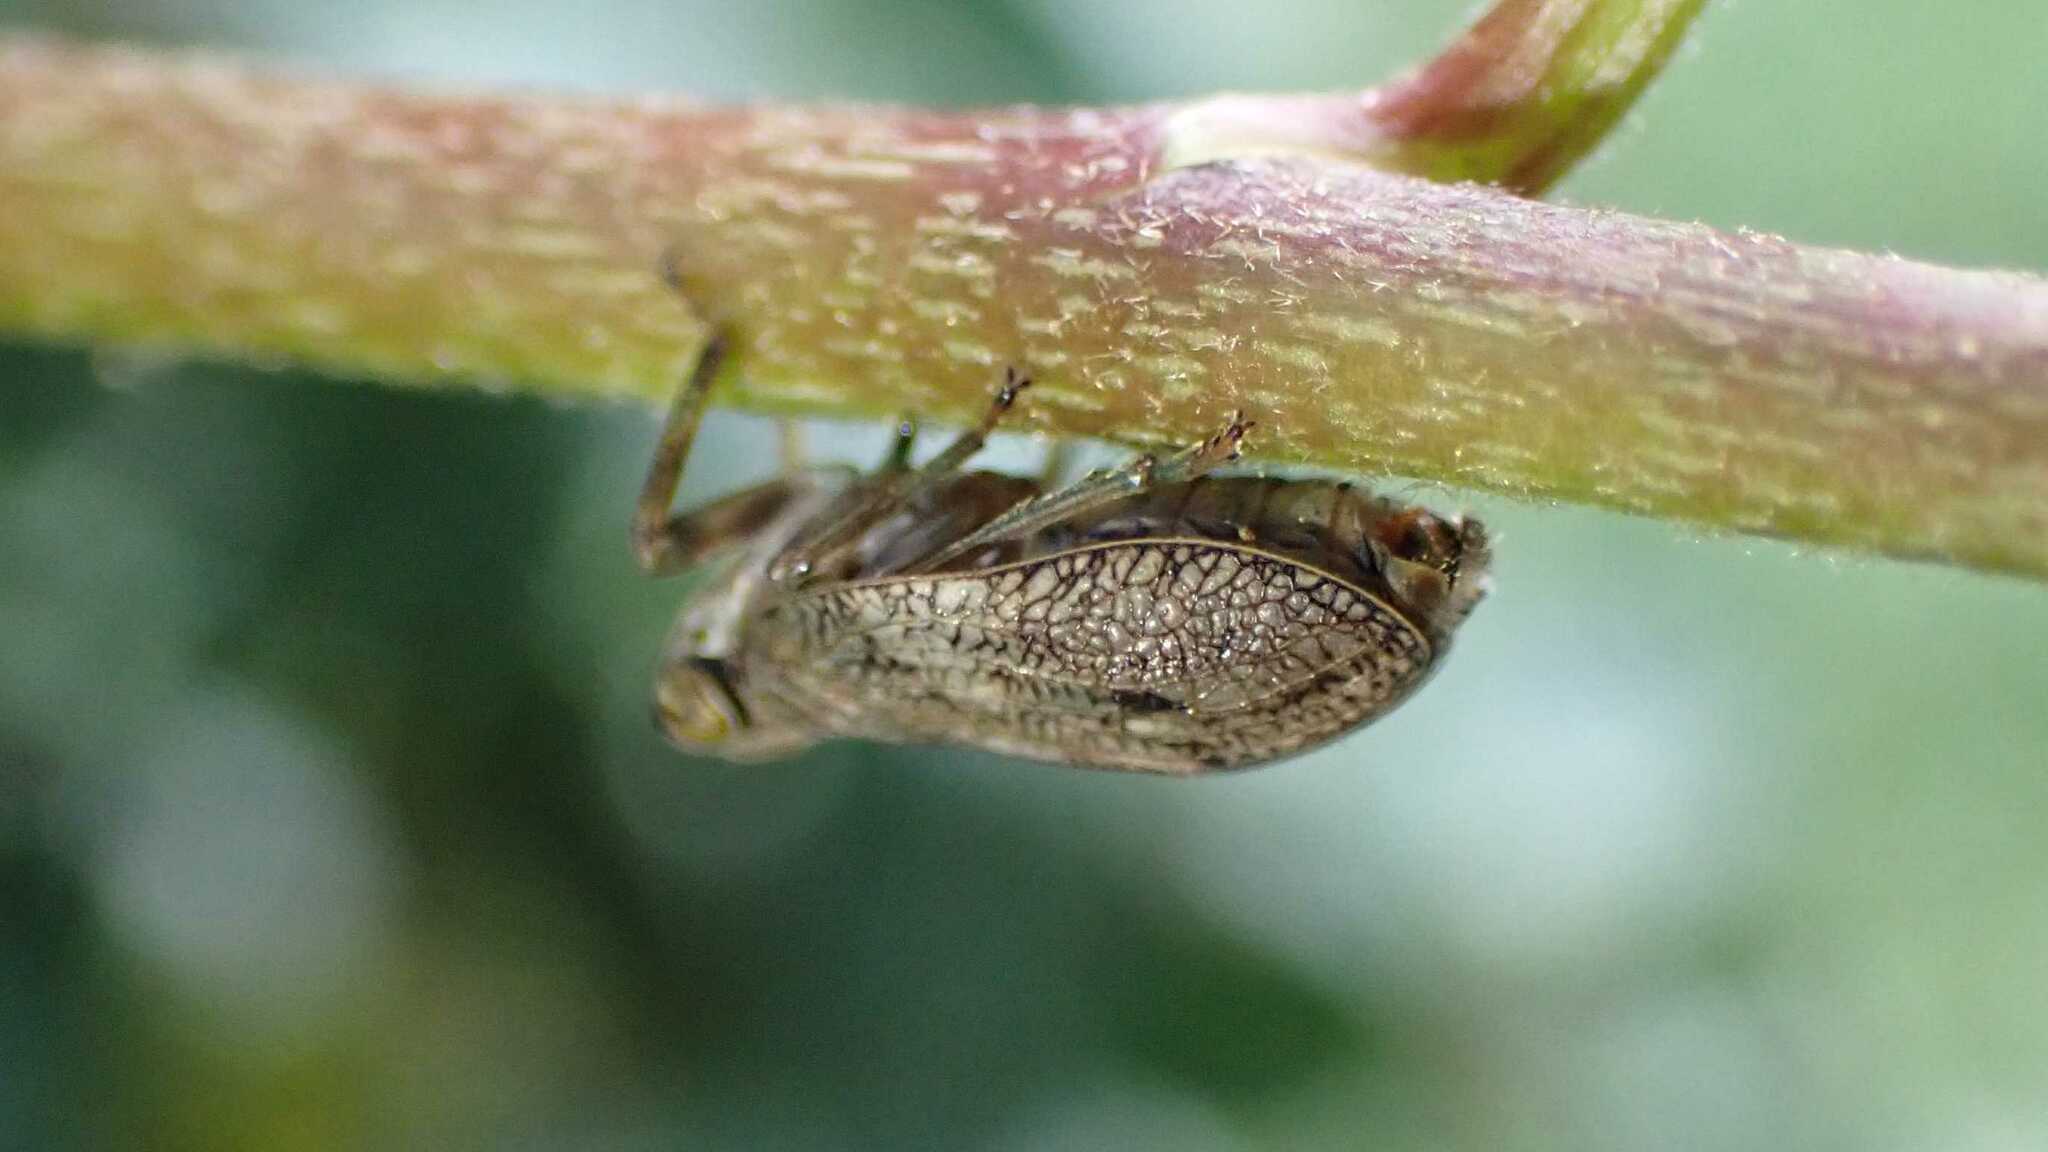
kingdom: Animalia
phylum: Arthropoda
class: Insecta
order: Hemiptera
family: Issidae
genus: Issus
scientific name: Issus coleoptratus
